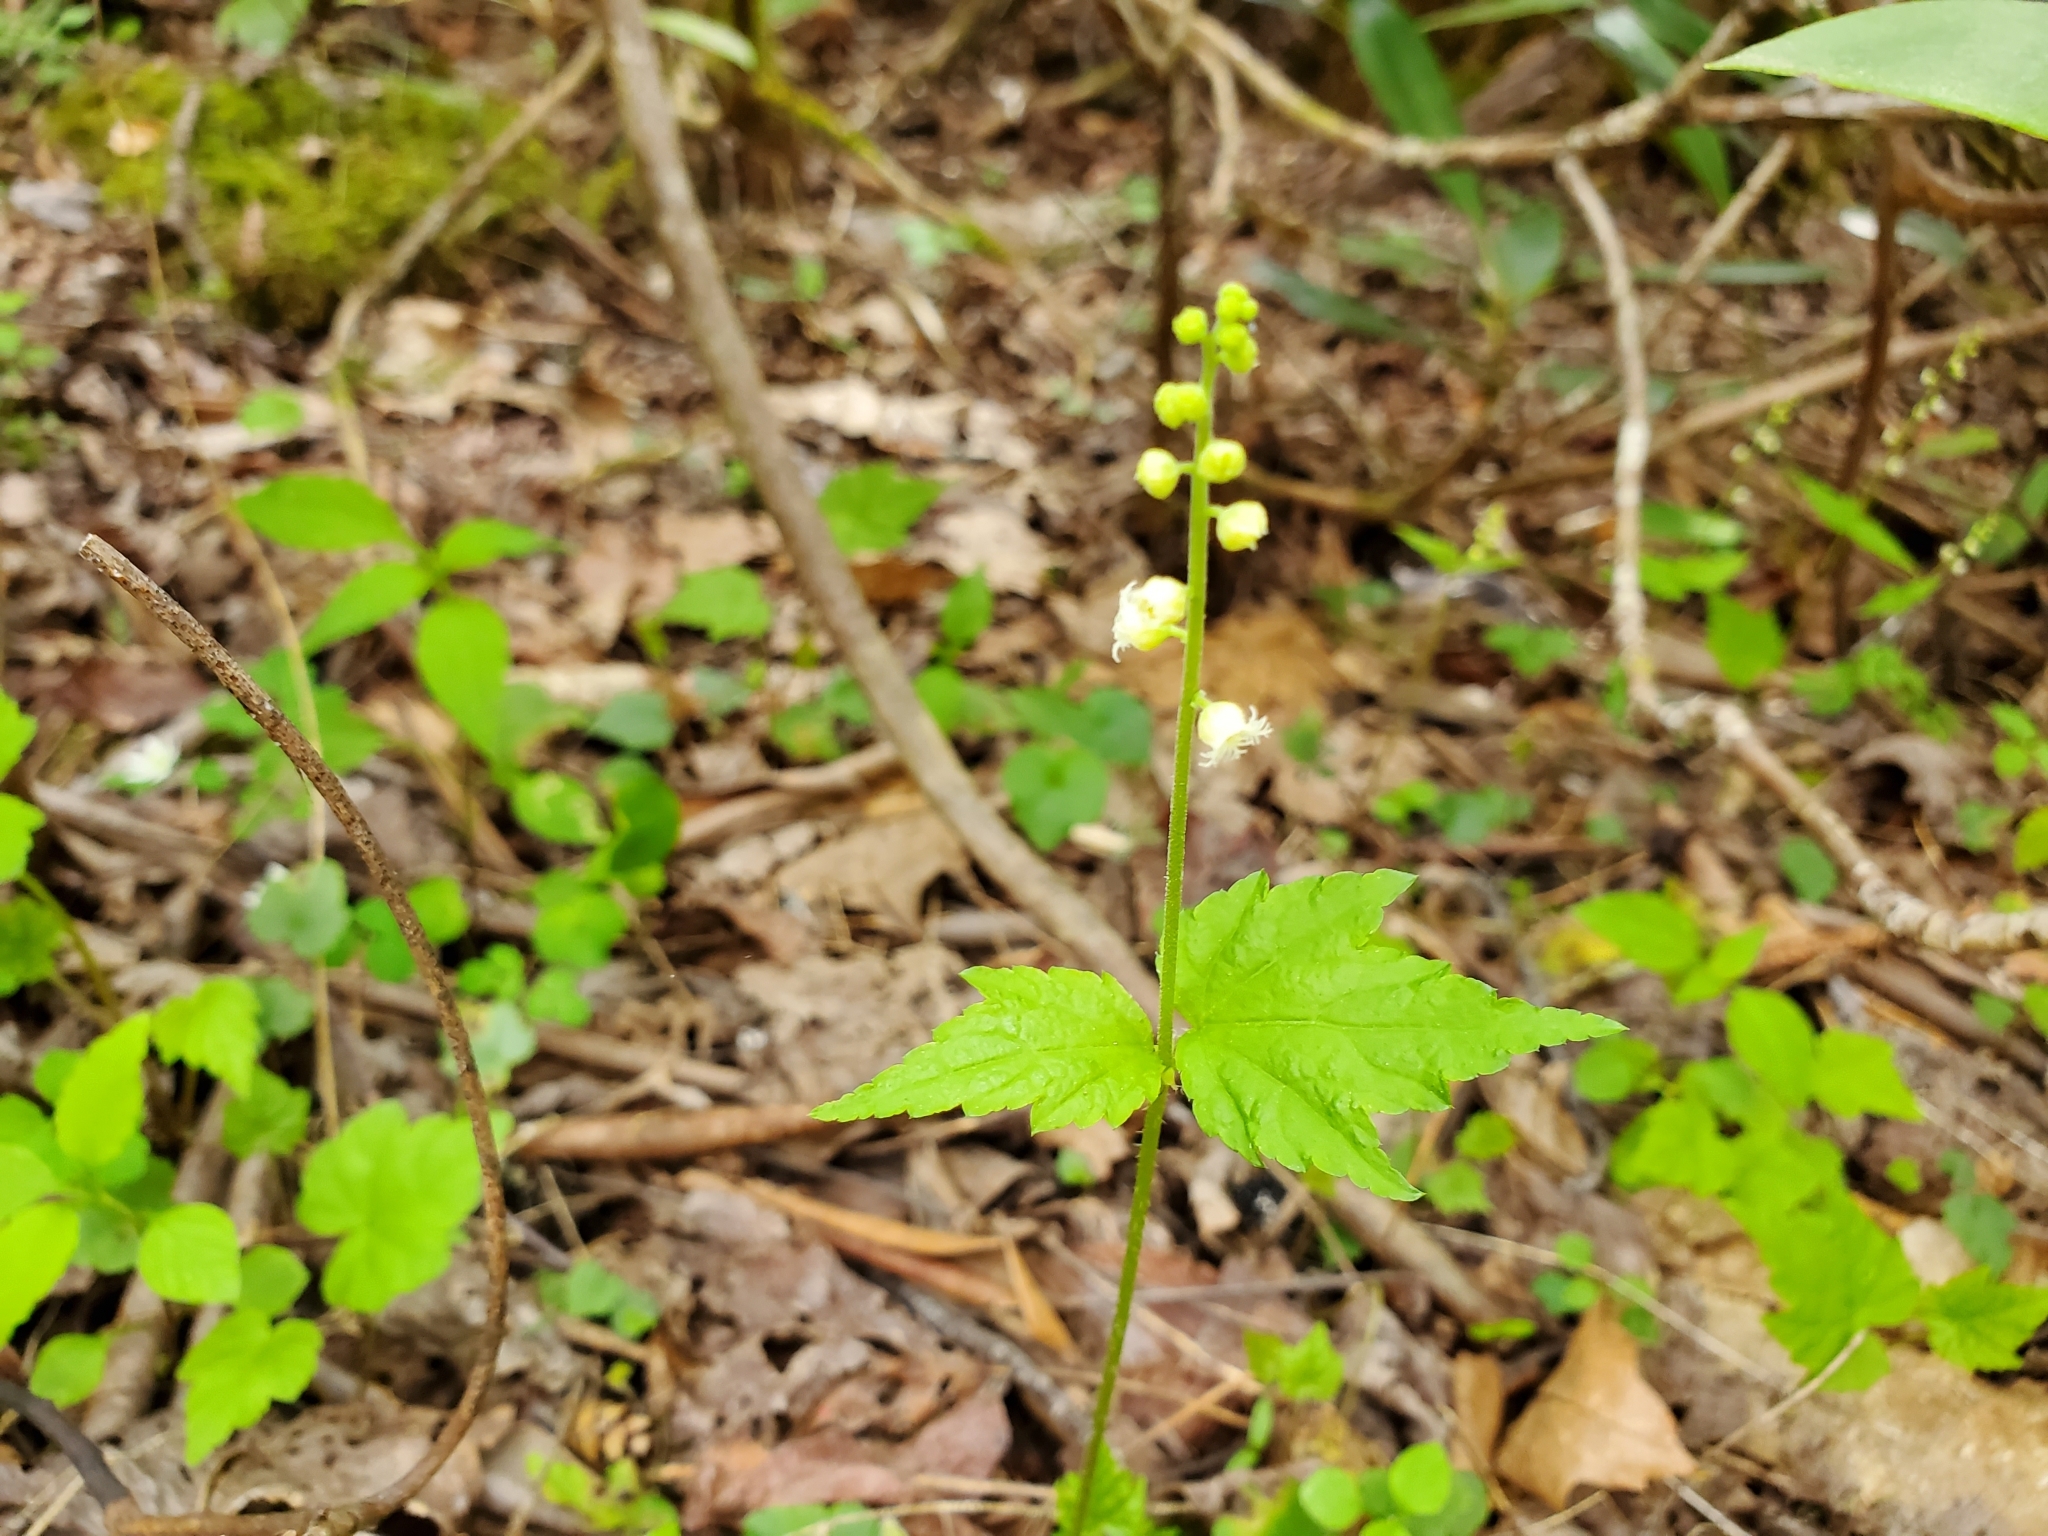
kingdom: Plantae
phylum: Tracheophyta
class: Magnoliopsida
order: Saxifragales
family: Saxifragaceae
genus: Mitella
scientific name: Mitella diphylla
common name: Coolwort
